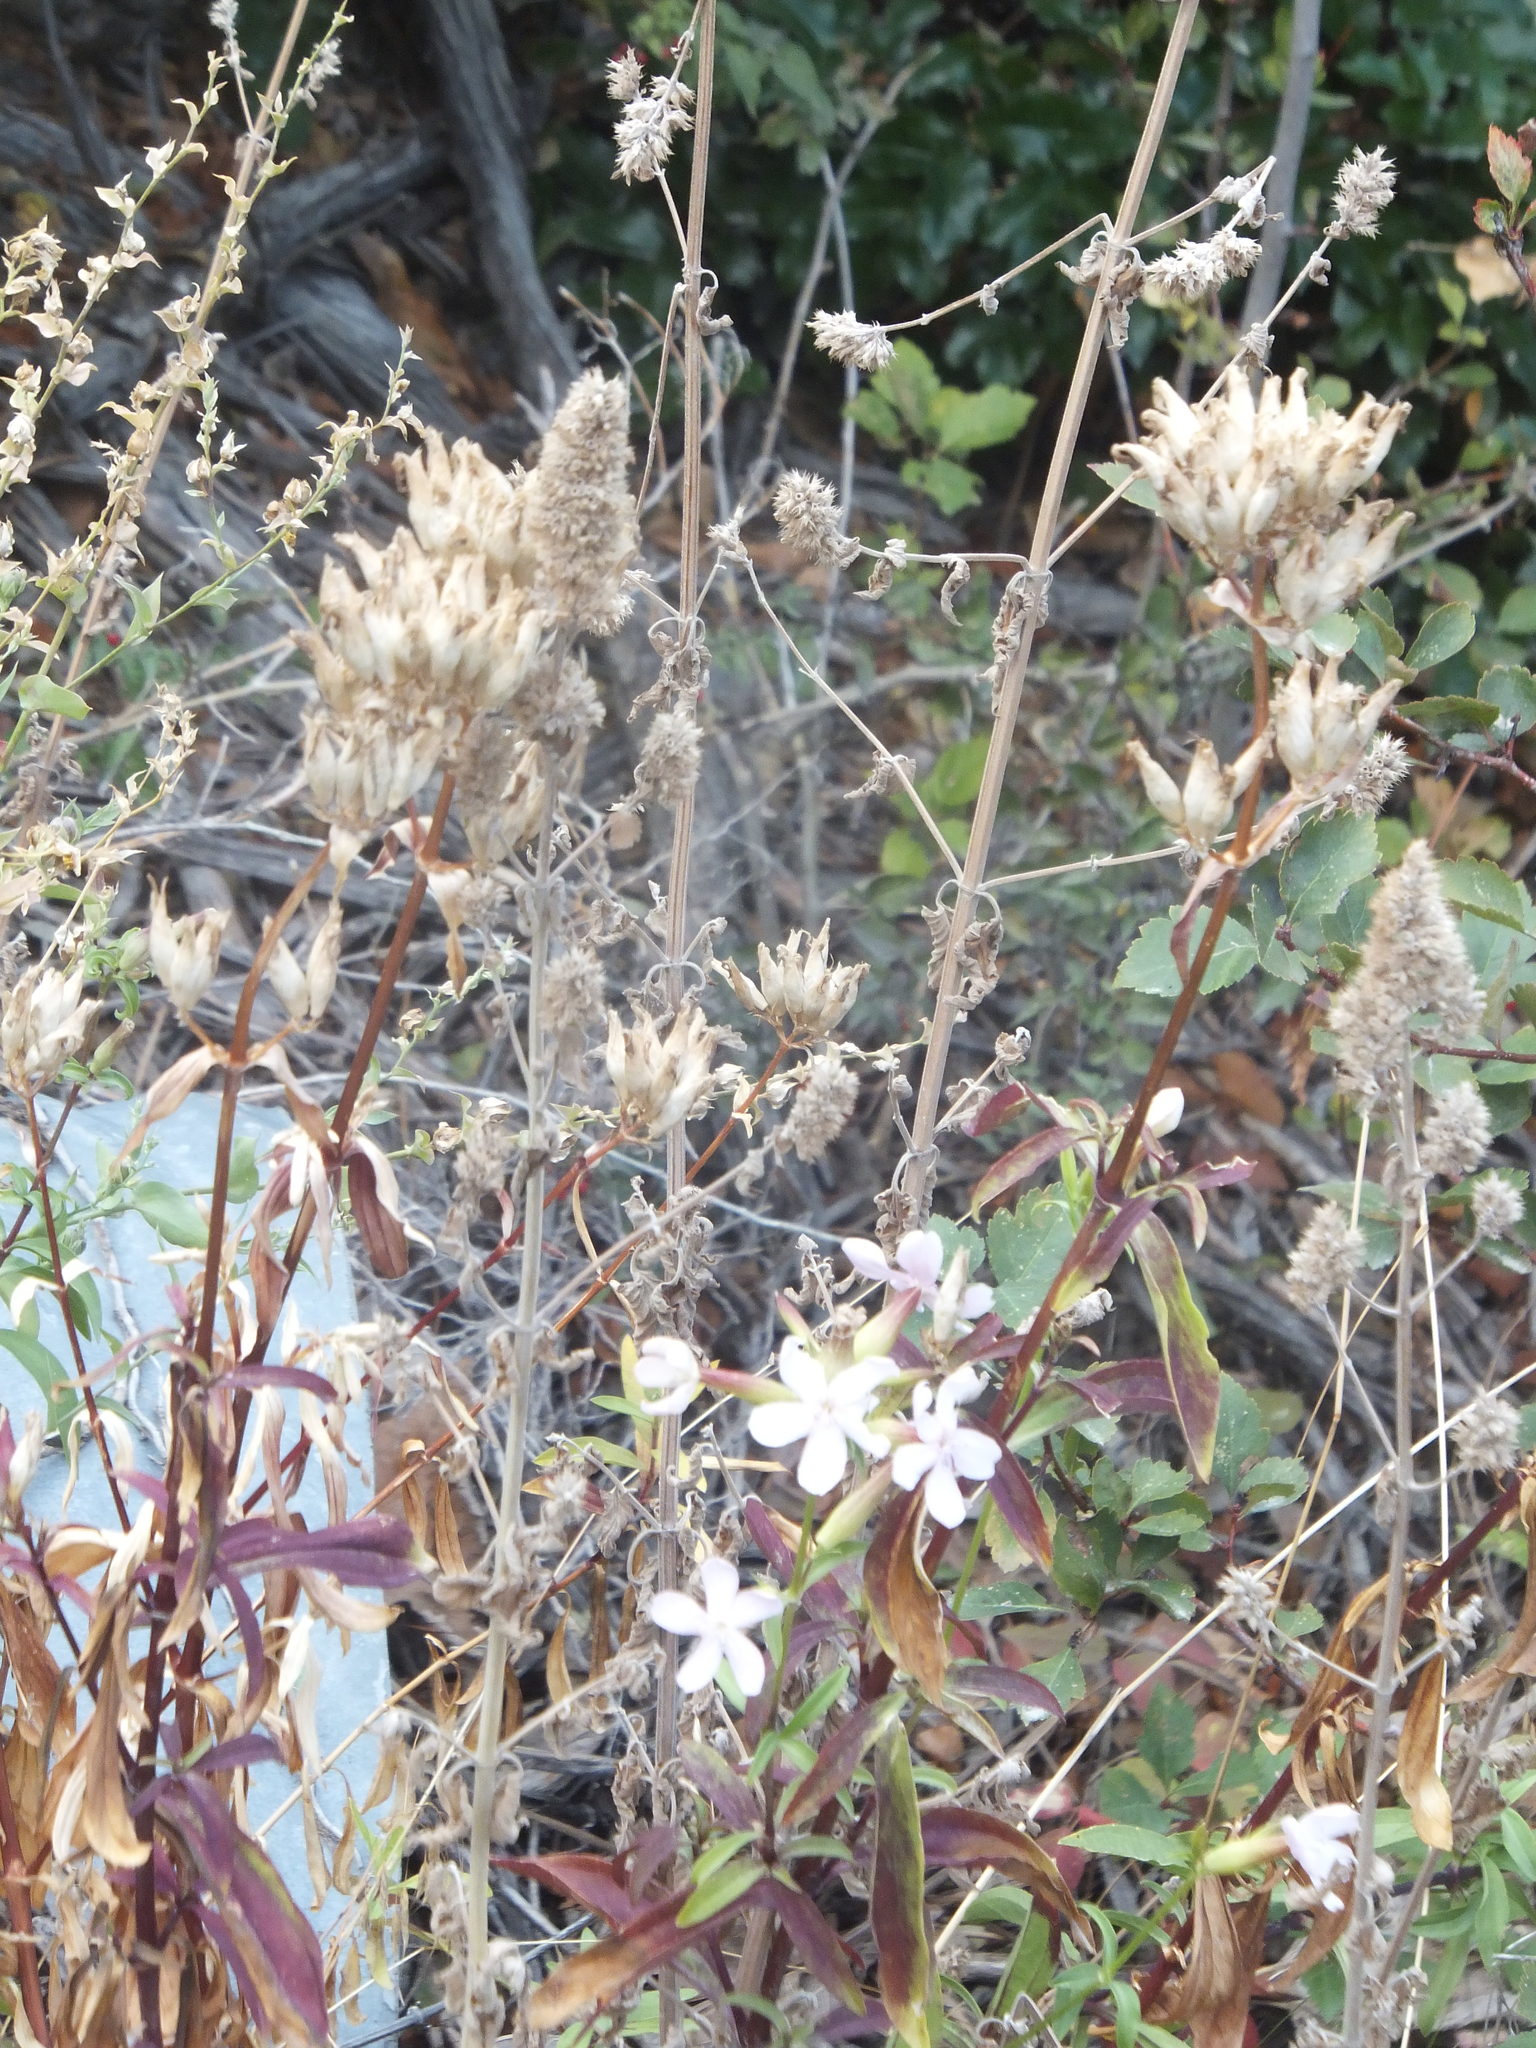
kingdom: Plantae
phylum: Tracheophyta
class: Magnoliopsida
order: Caryophyllales
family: Caryophyllaceae
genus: Saponaria
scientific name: Saponaria officinalis
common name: Soapwort
